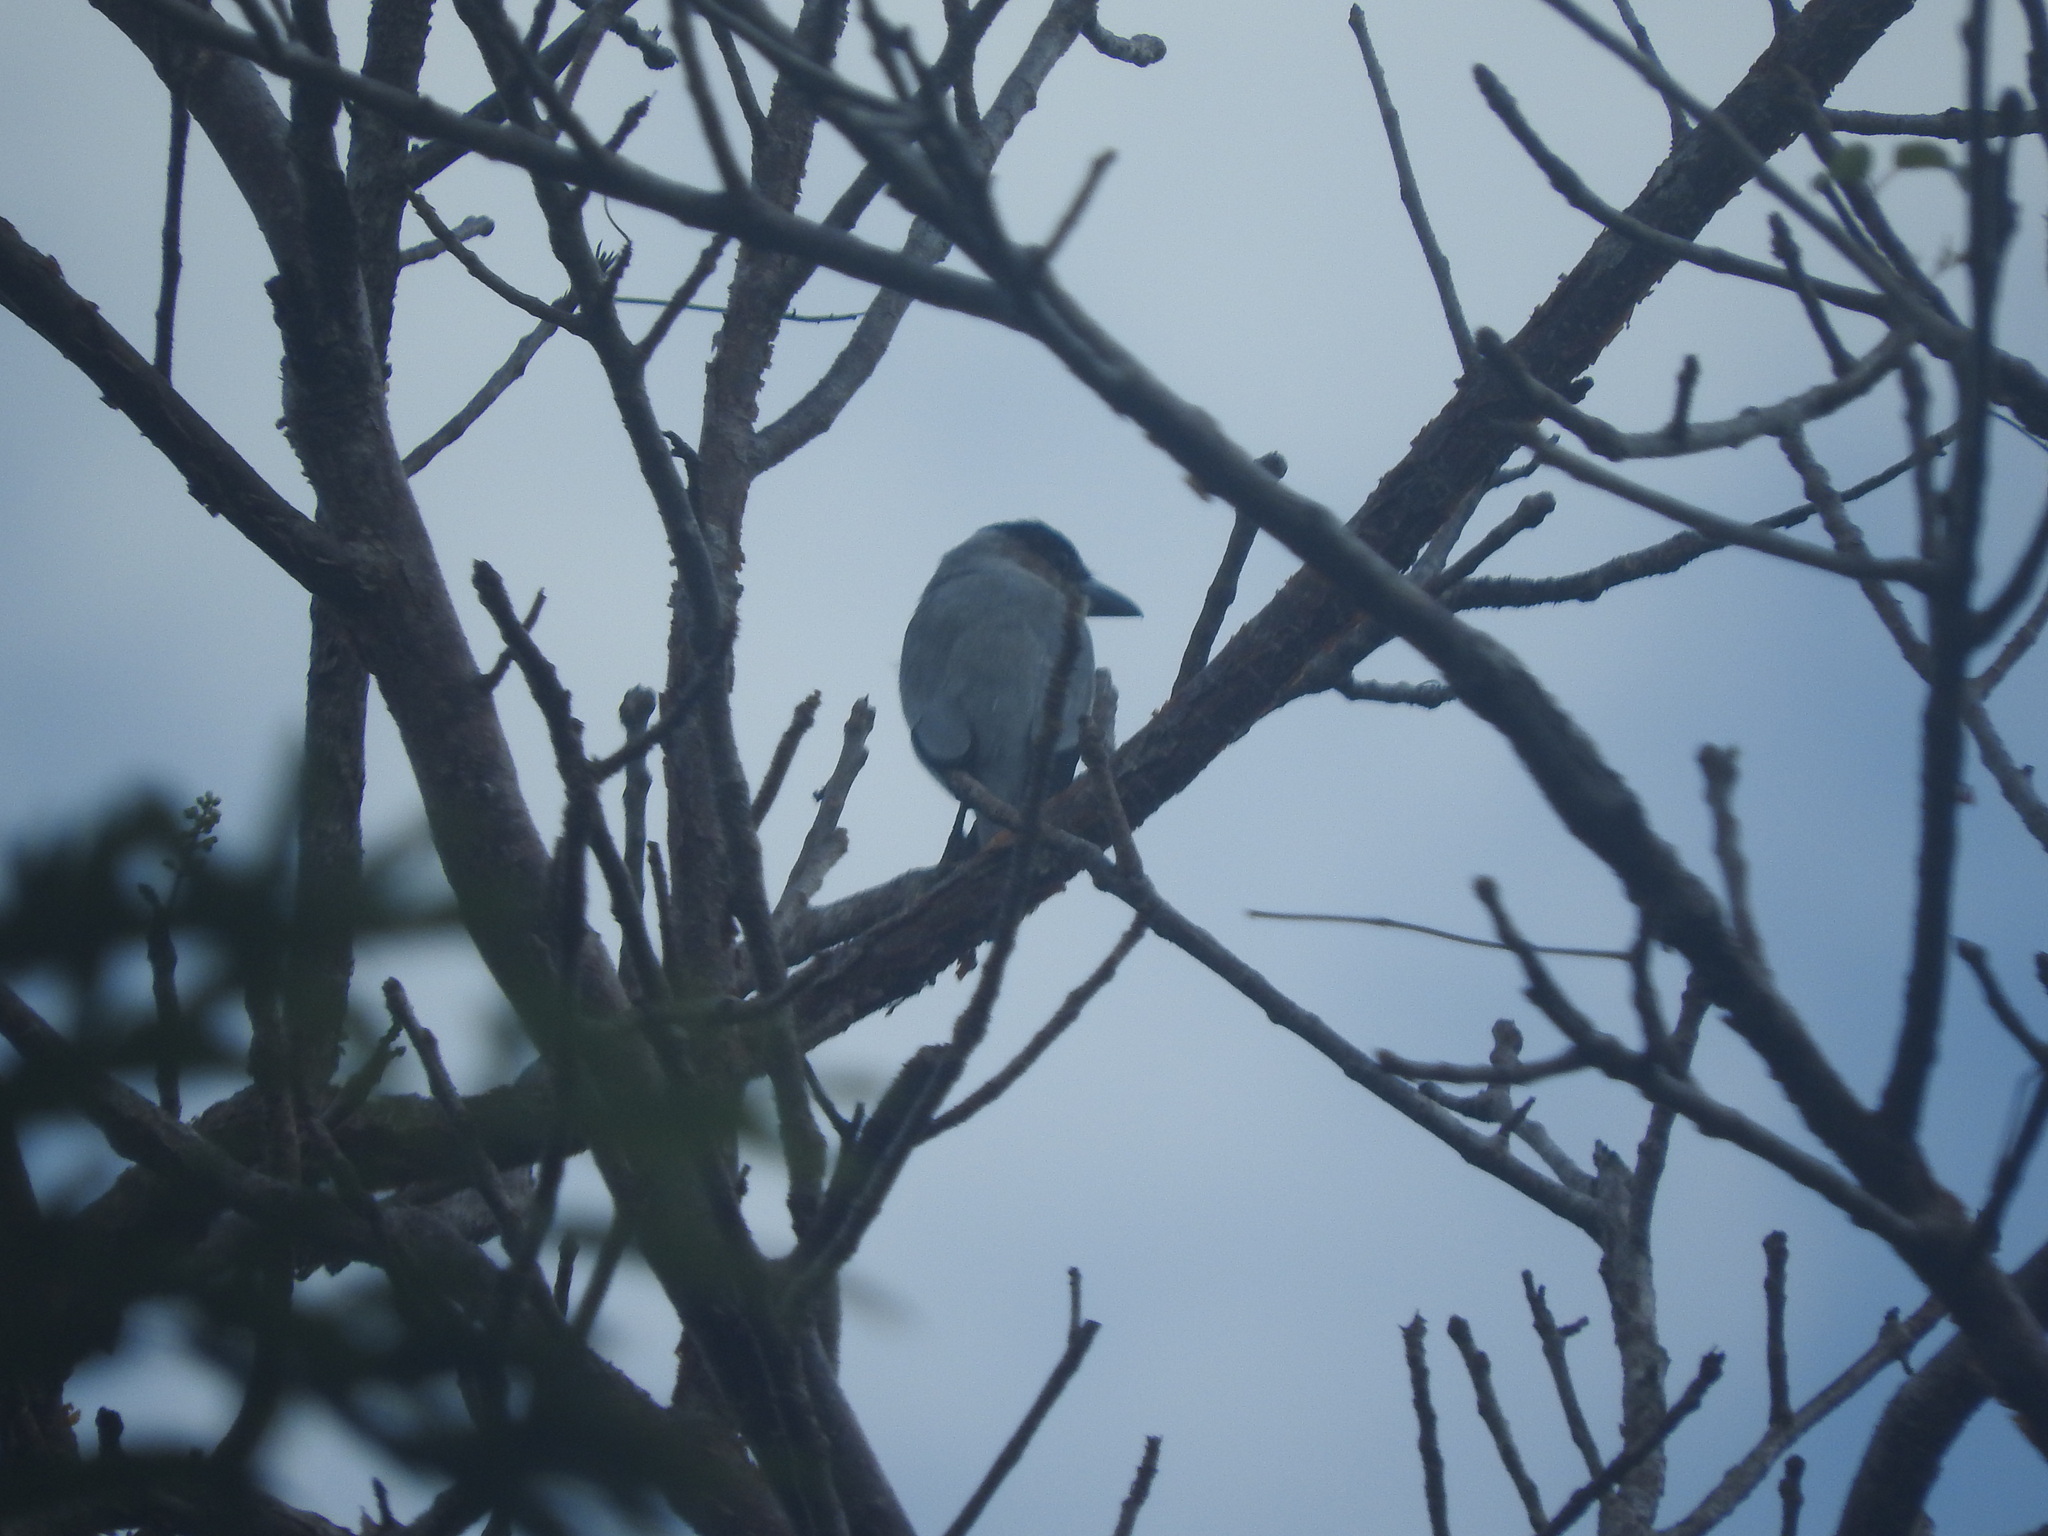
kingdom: Animalia
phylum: Chordata
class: Aves
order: Passeriformes
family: Cotingidae
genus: Tityra
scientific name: Tityra inquisitor
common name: Black-crowned tityra
